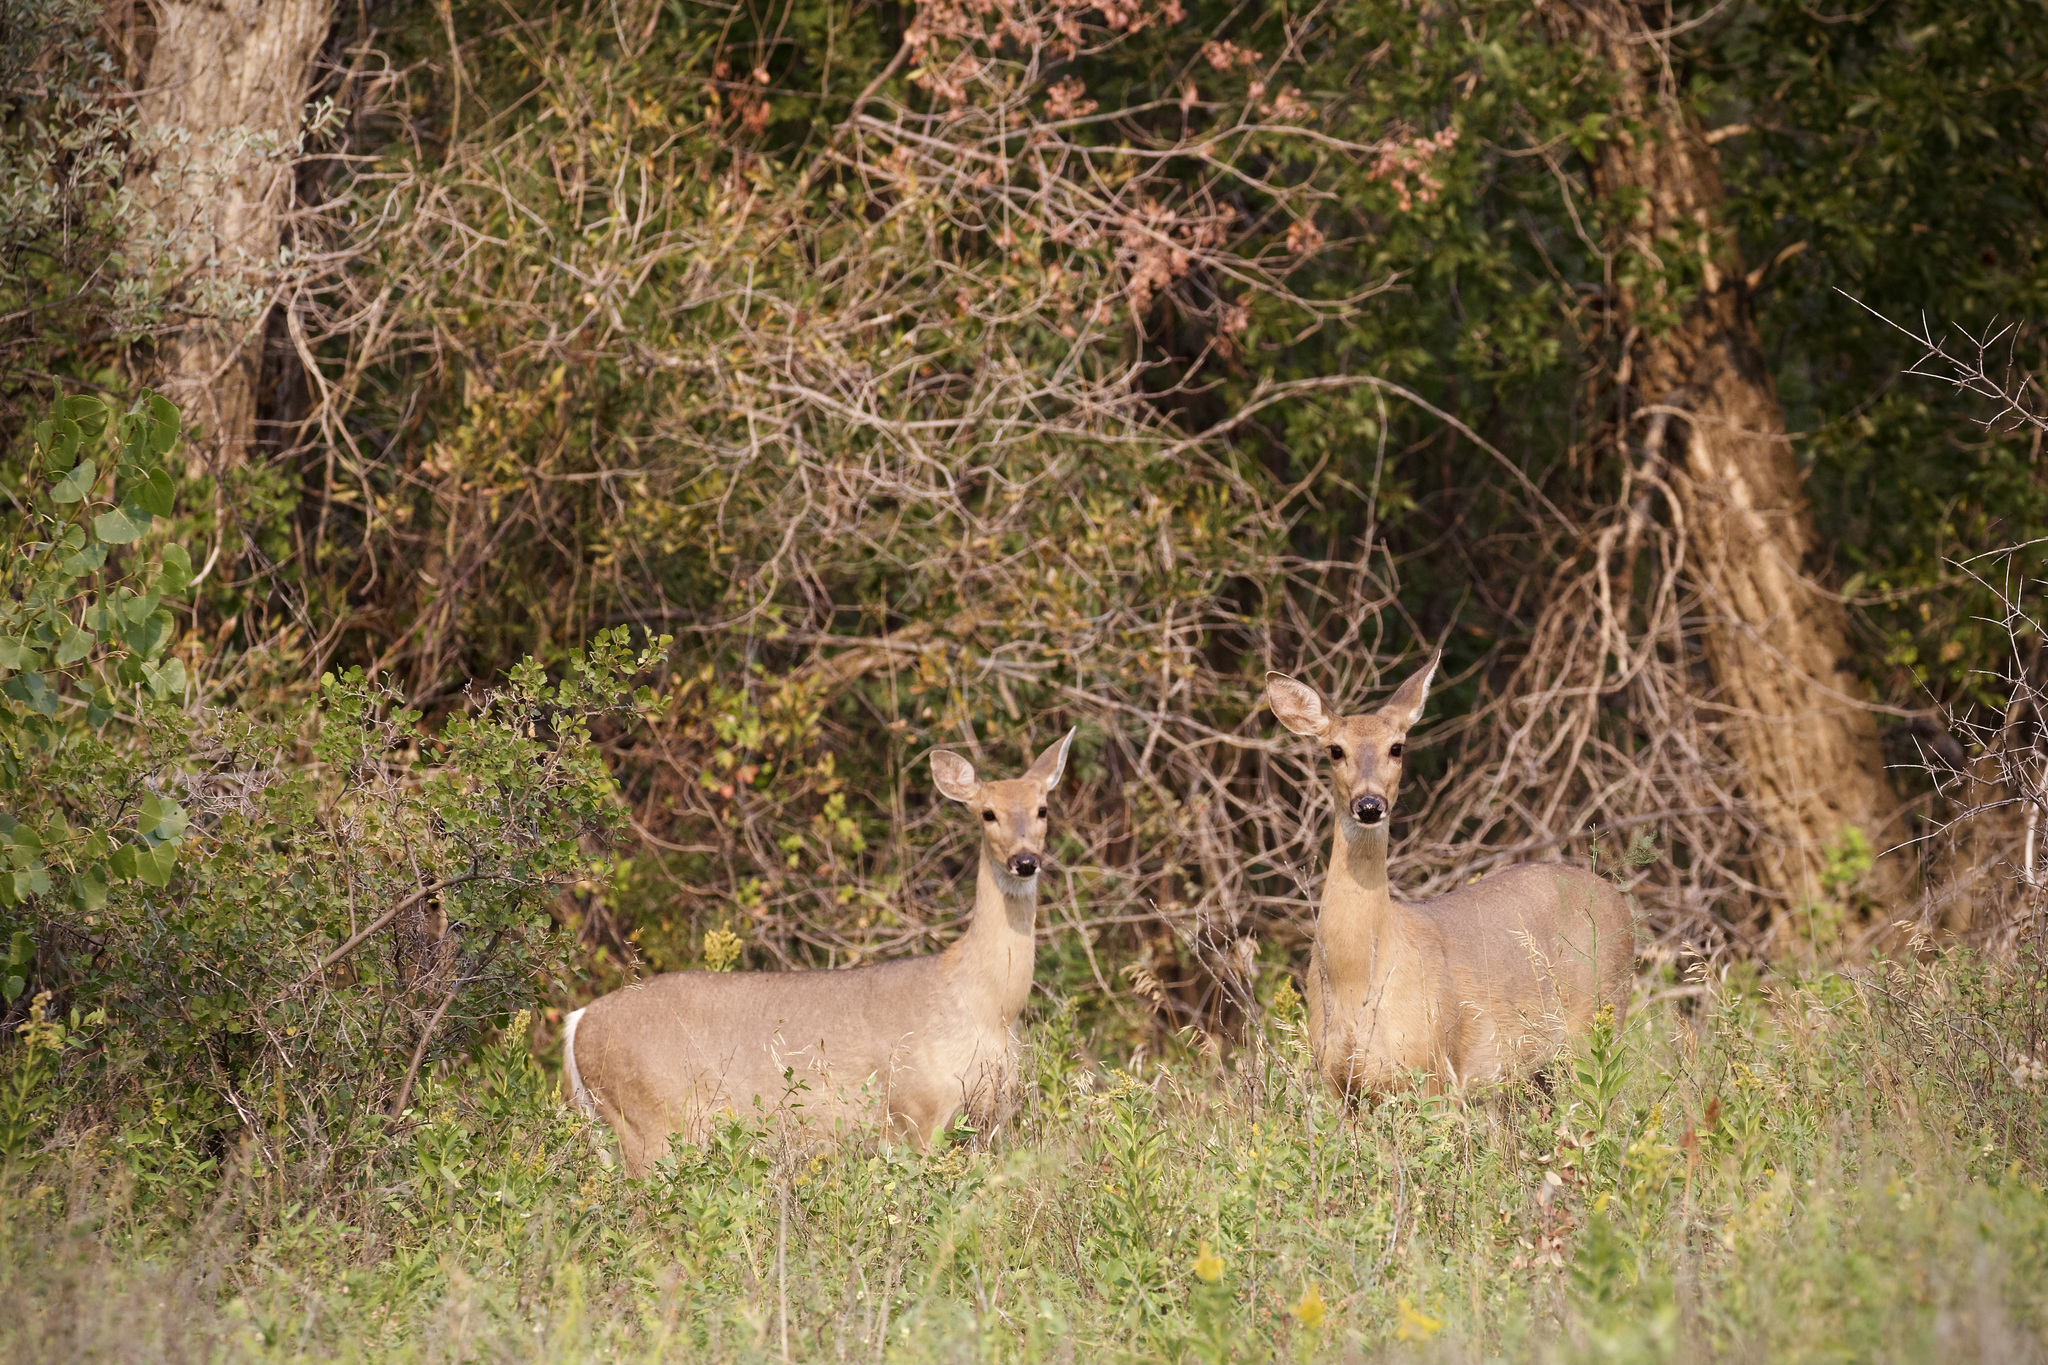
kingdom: Animalia
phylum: Chordata
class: Mammalia
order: Artiodactyla
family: Cervidae
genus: Odocoileus
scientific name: Odocoileus virginianus
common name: White-tailed deer
